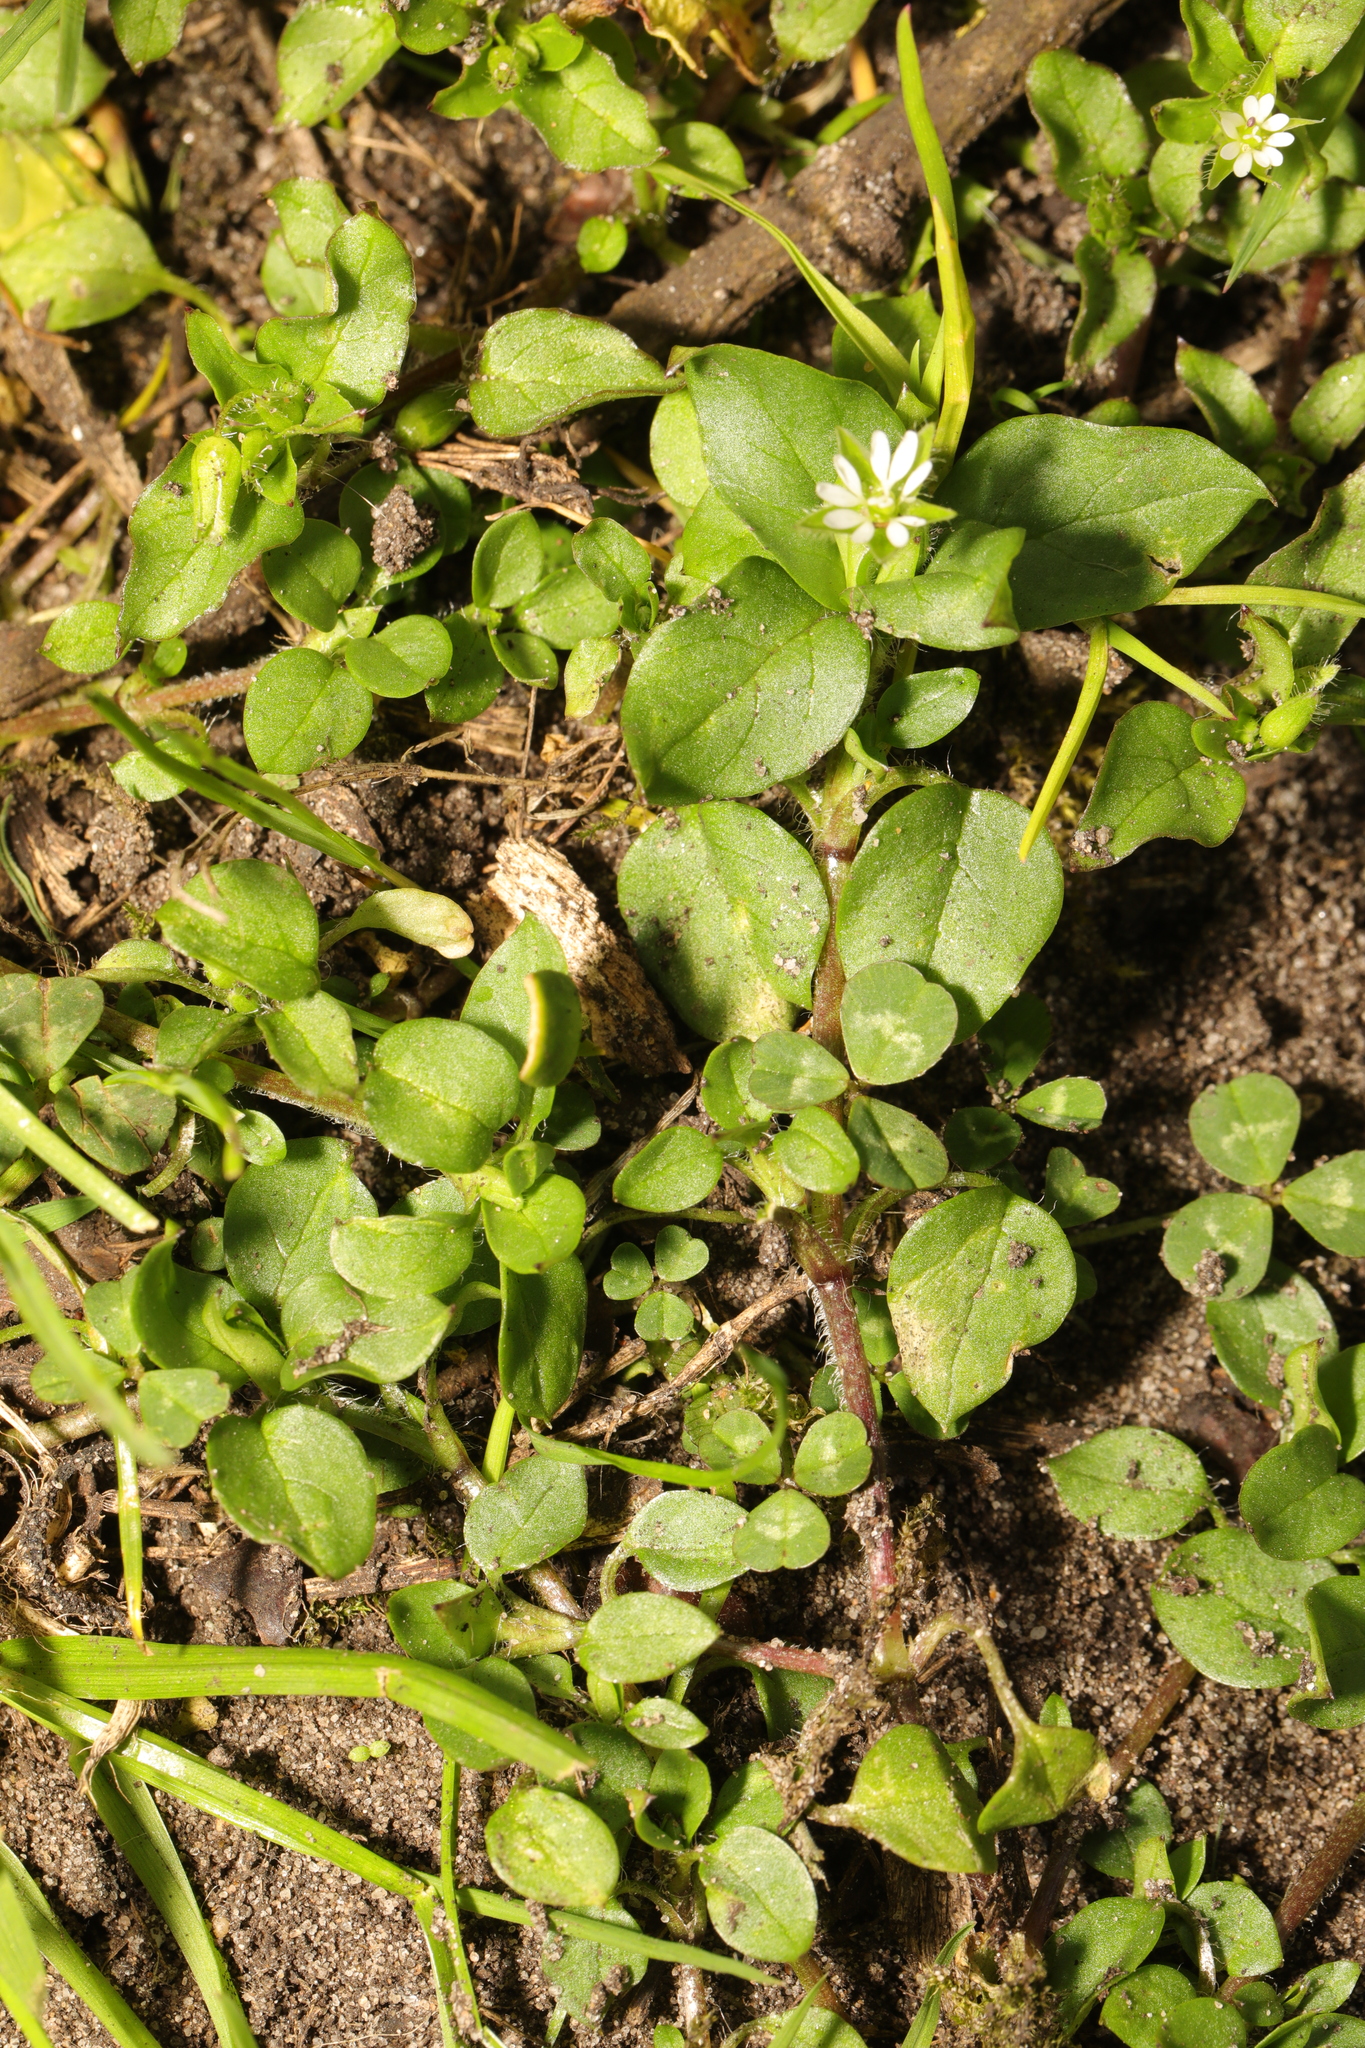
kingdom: Plantae
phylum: Tracheophyta
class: Magnoliopsida
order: Caryophyllales
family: Caryophyllaceae
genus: Stellaria
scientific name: Stellaria media
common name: Common chickweed
